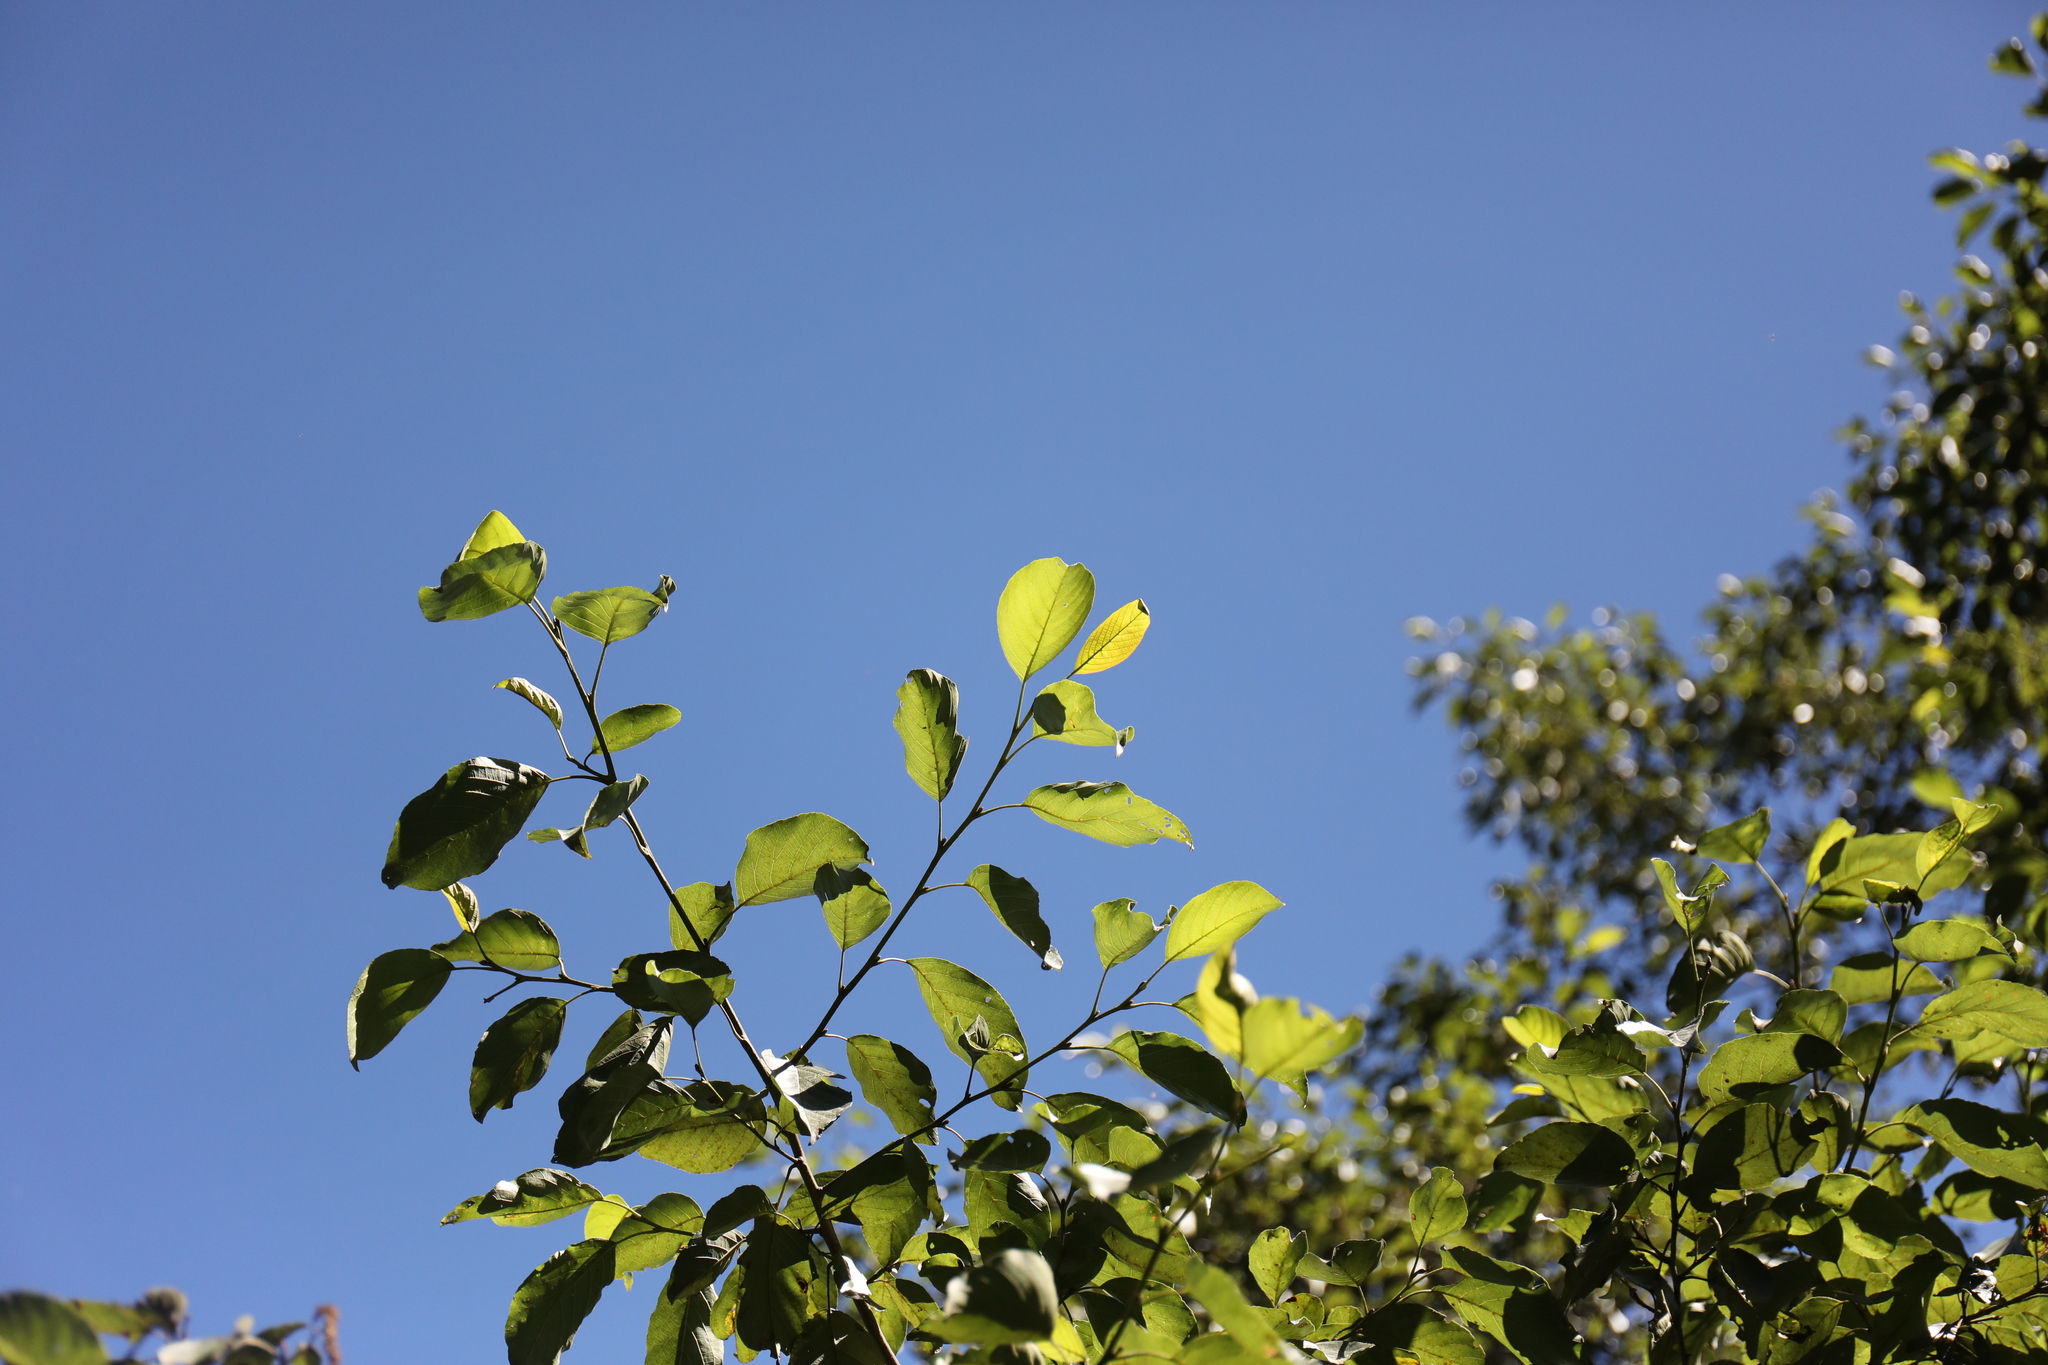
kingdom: Plantae
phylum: Tracheophyta
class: Magnoliopsida
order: Fagales
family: Betulaceae
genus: Alnus
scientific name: Alnus formosana
